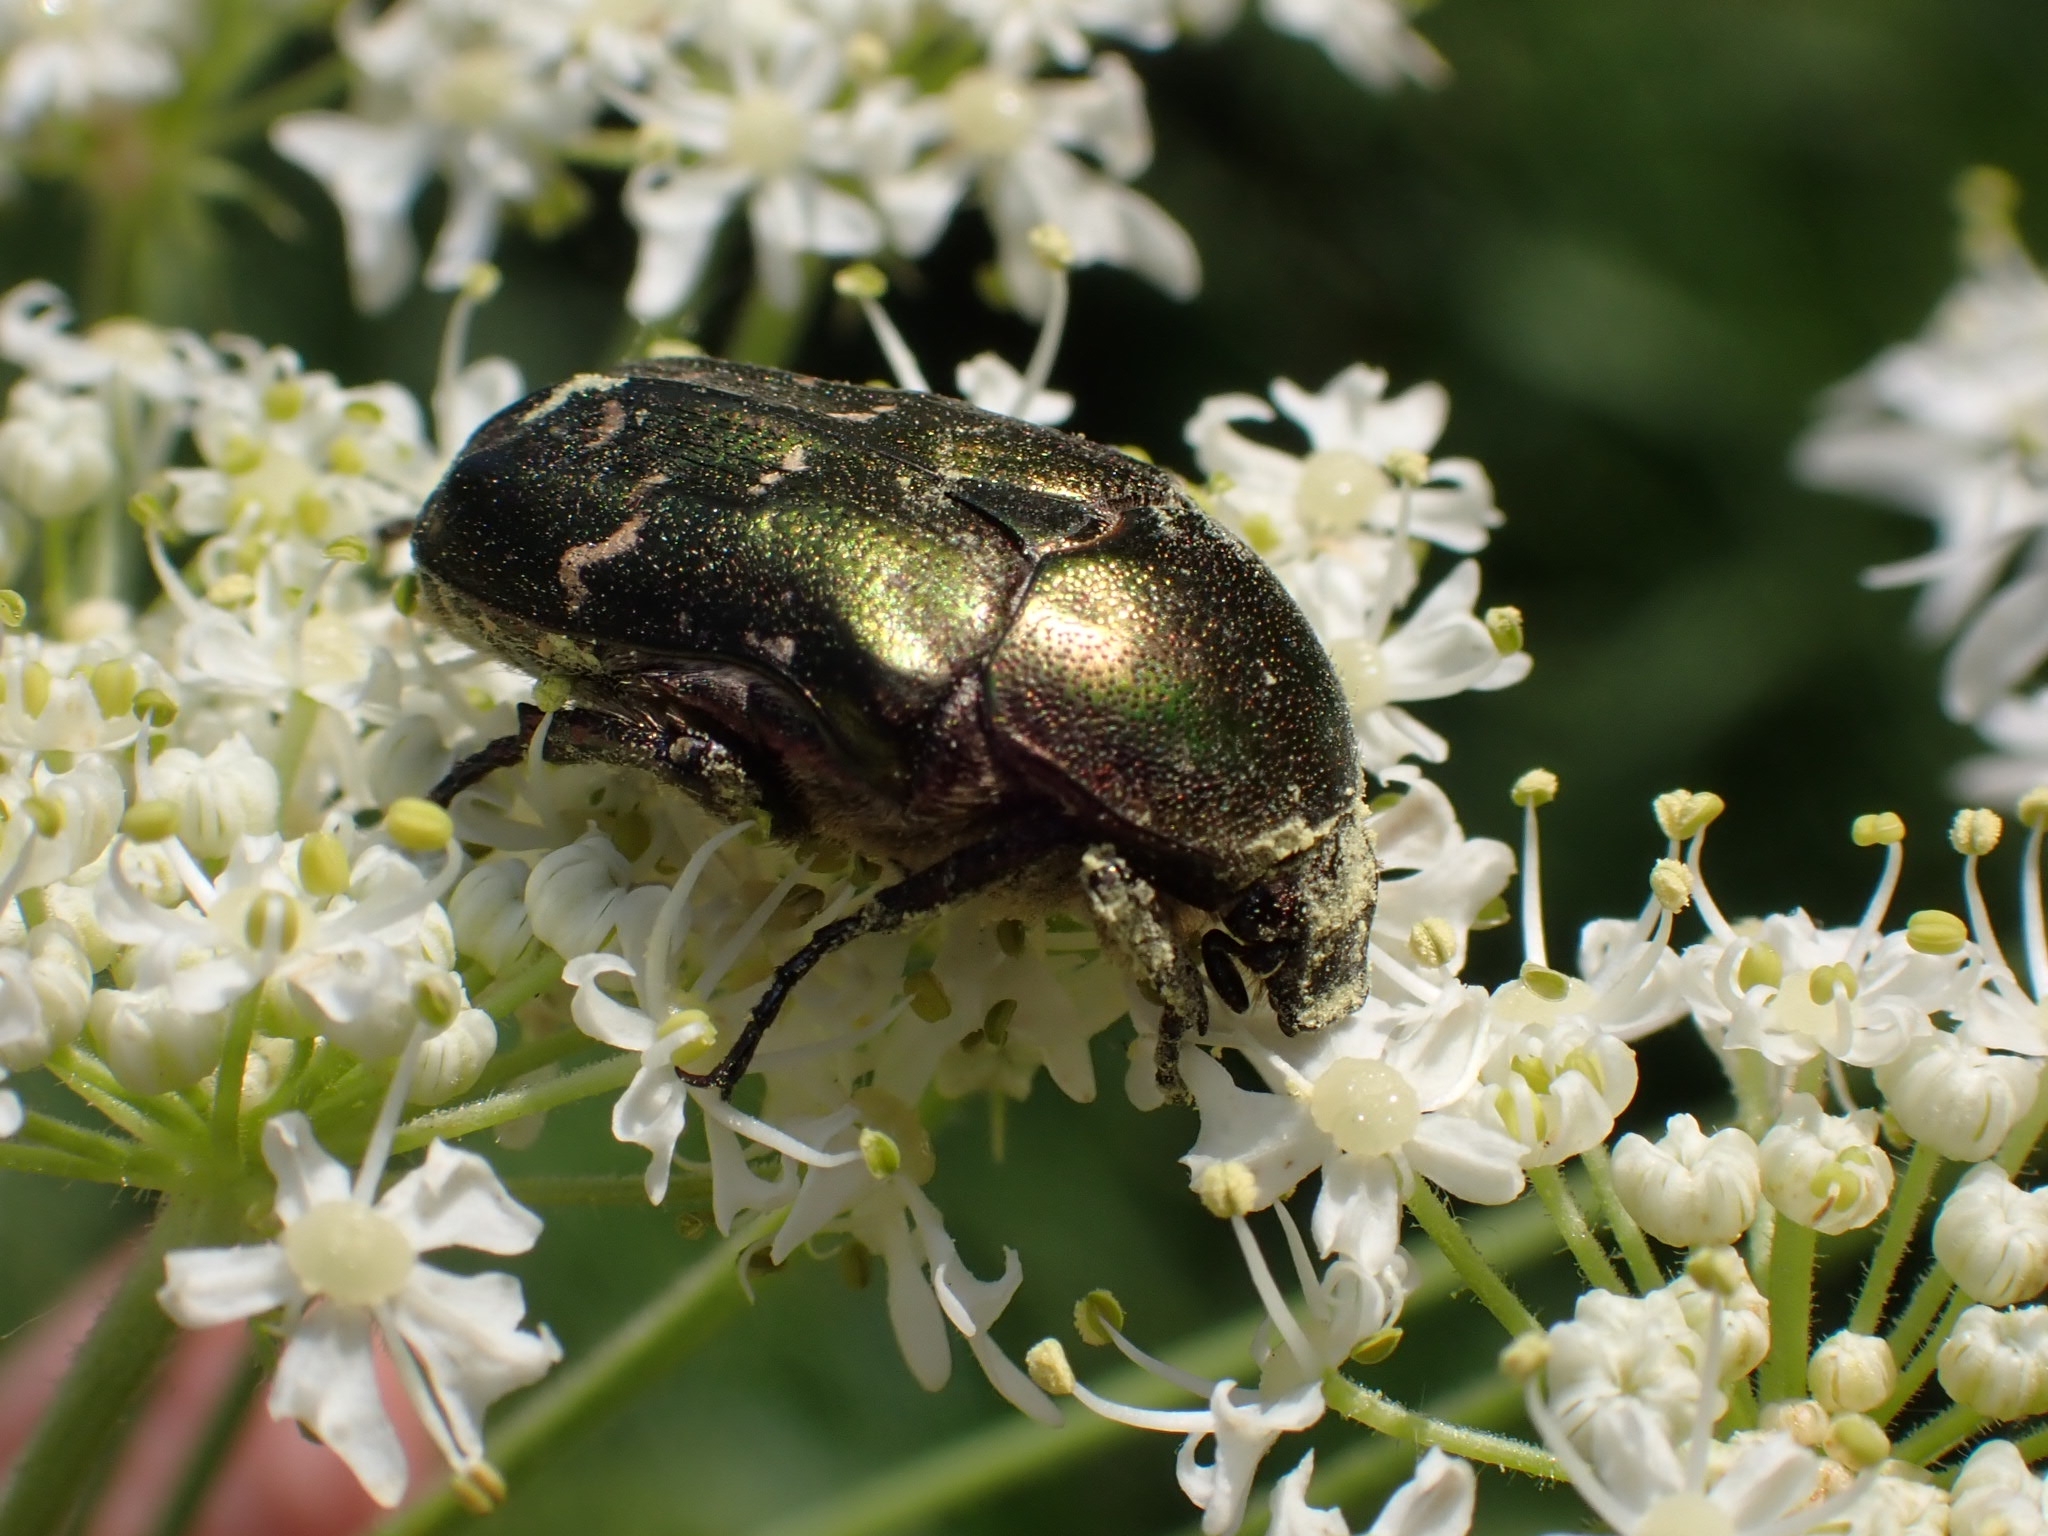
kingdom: Animalia
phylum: Arthropoda
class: Insecta
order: Coleoptera
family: Scarabaeidae
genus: Protaetia
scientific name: Protaetia cuprea
